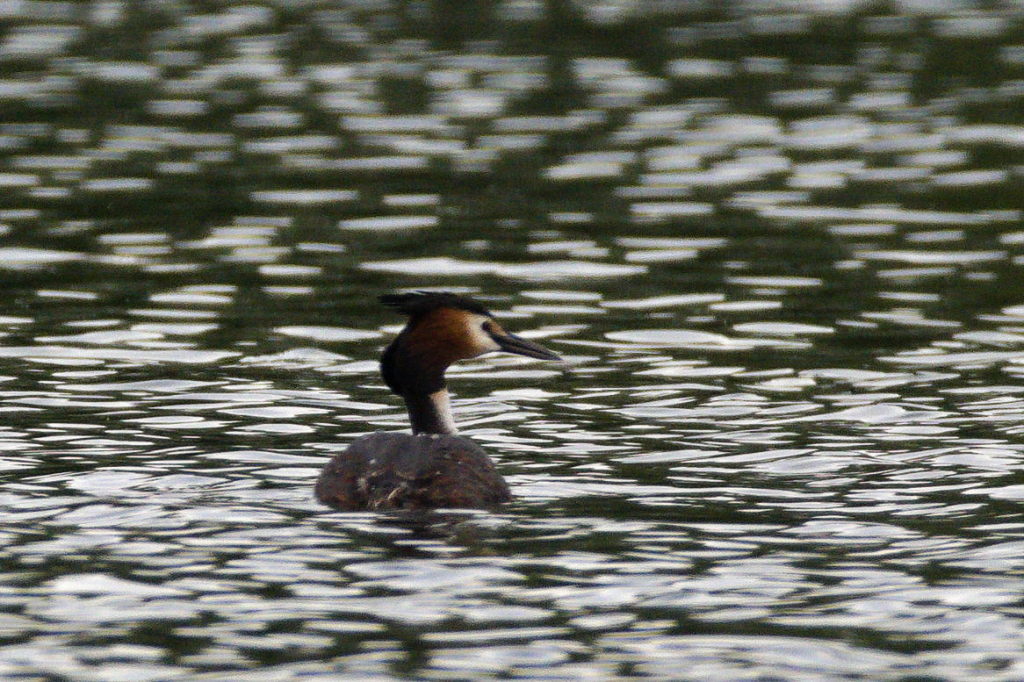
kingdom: Animalia
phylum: Chordata
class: Aves
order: Podicipediformes
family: Podicipedidae
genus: Podiceps
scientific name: Podiceps cristatus
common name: Great crested grebe
